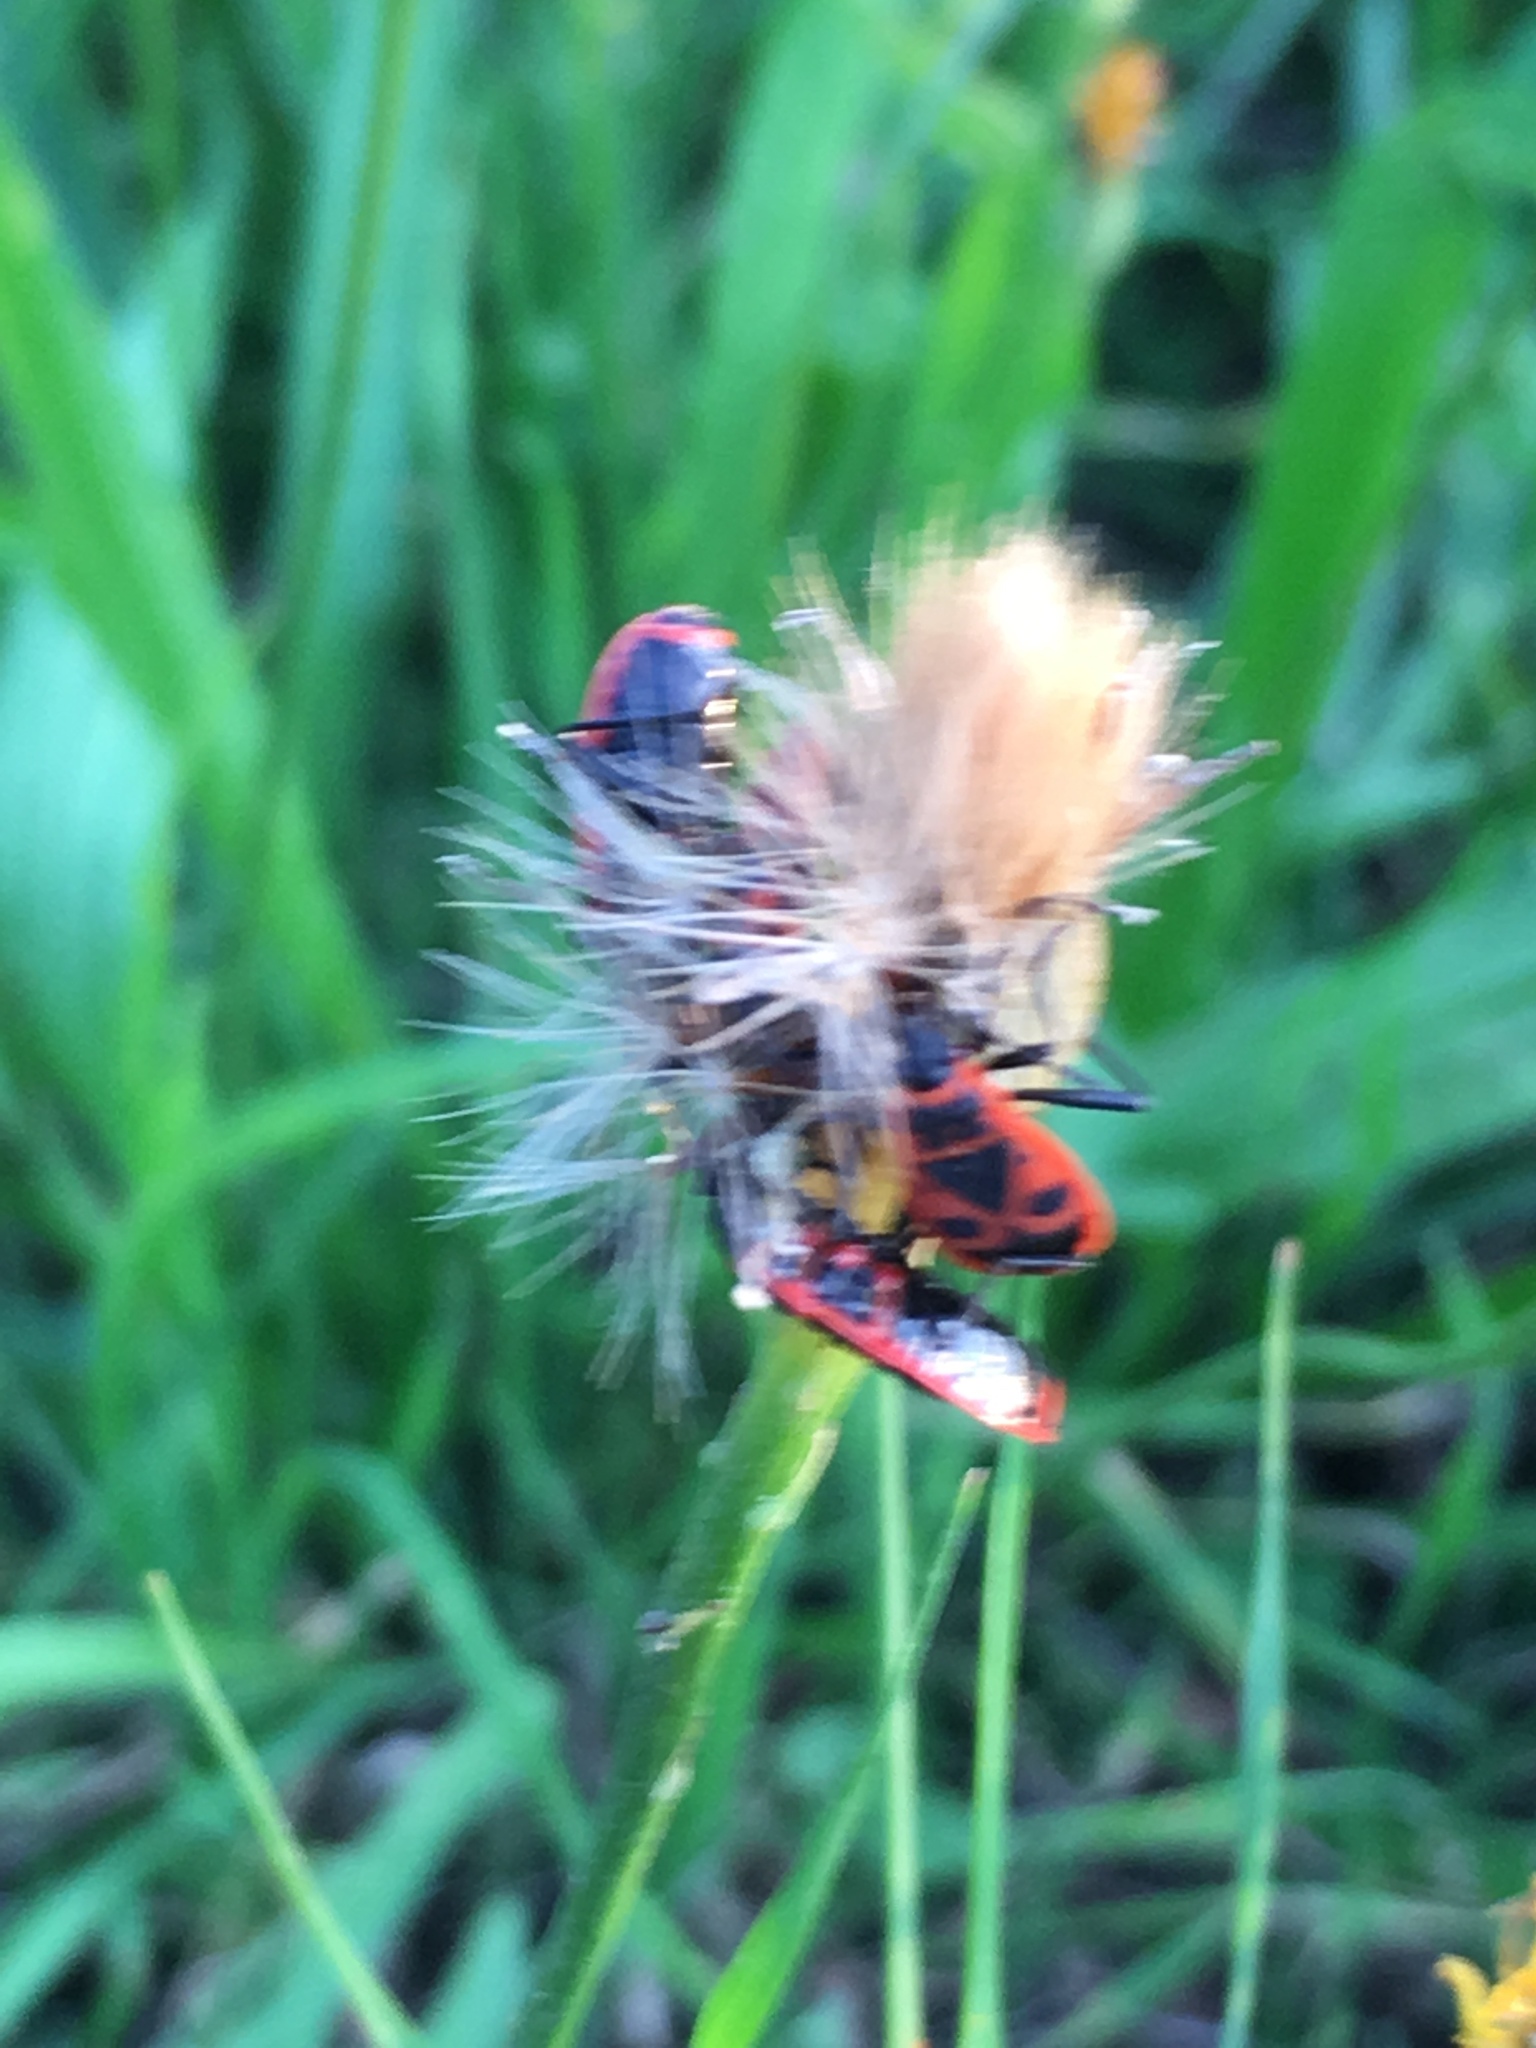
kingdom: Animalia
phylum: Arthropoda
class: Insecta
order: Hemiptera
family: Pyrrhocoridae
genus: Pyrrhocoris
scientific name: Pyrrhocoris apterus
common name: Firebug
